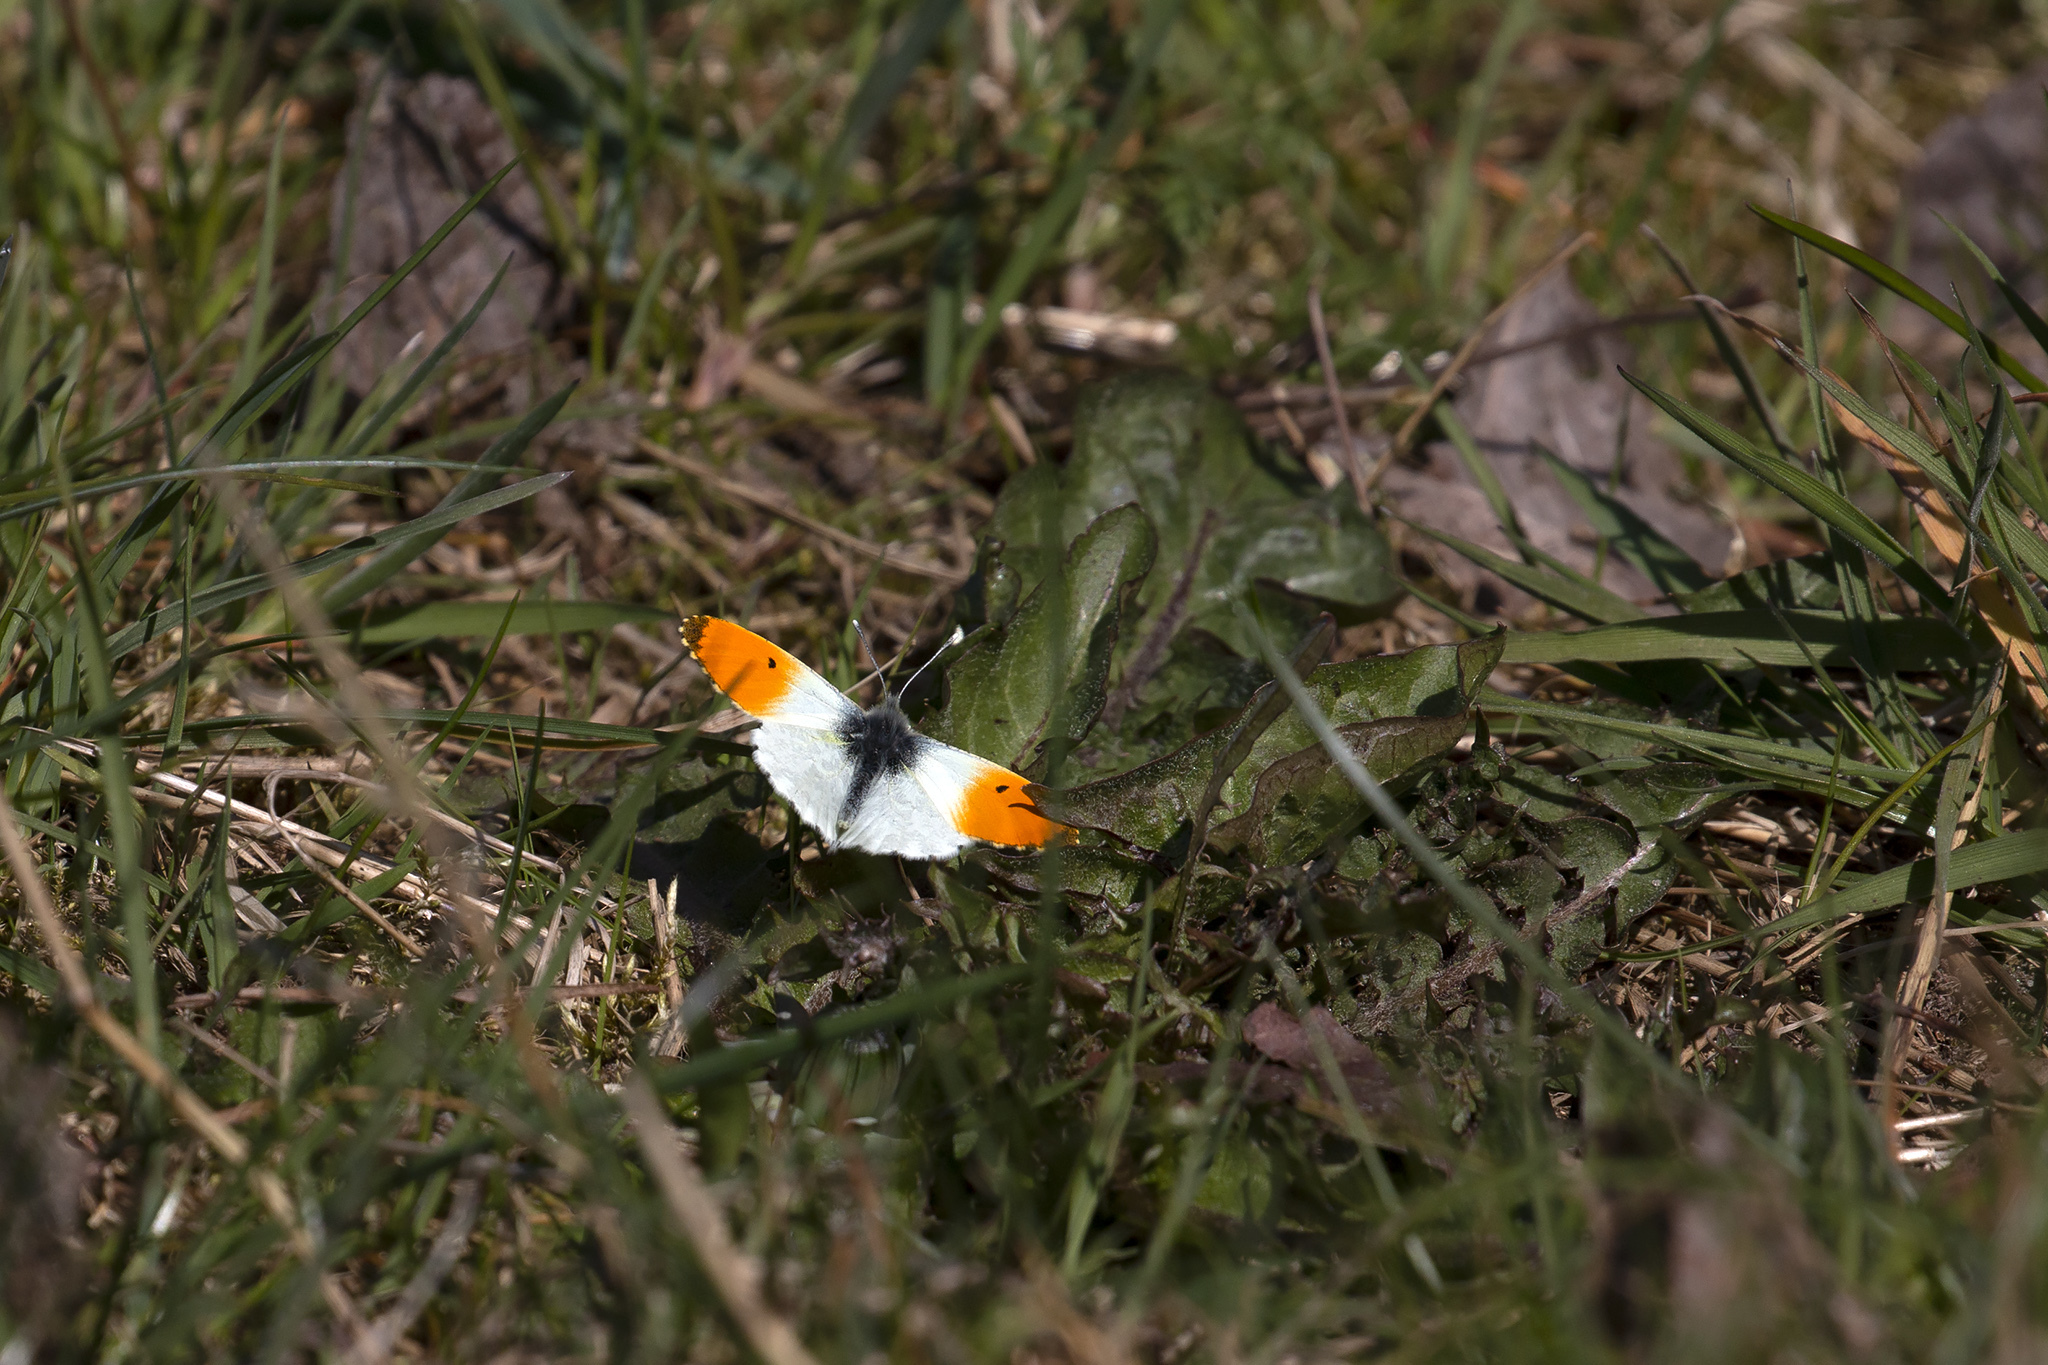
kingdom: Animalia
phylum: Arthropoda
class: Insecta
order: Lepidoptera
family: Pieridae
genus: Anthocharis
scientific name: Anthocharis cardamines
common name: Orange-tip
